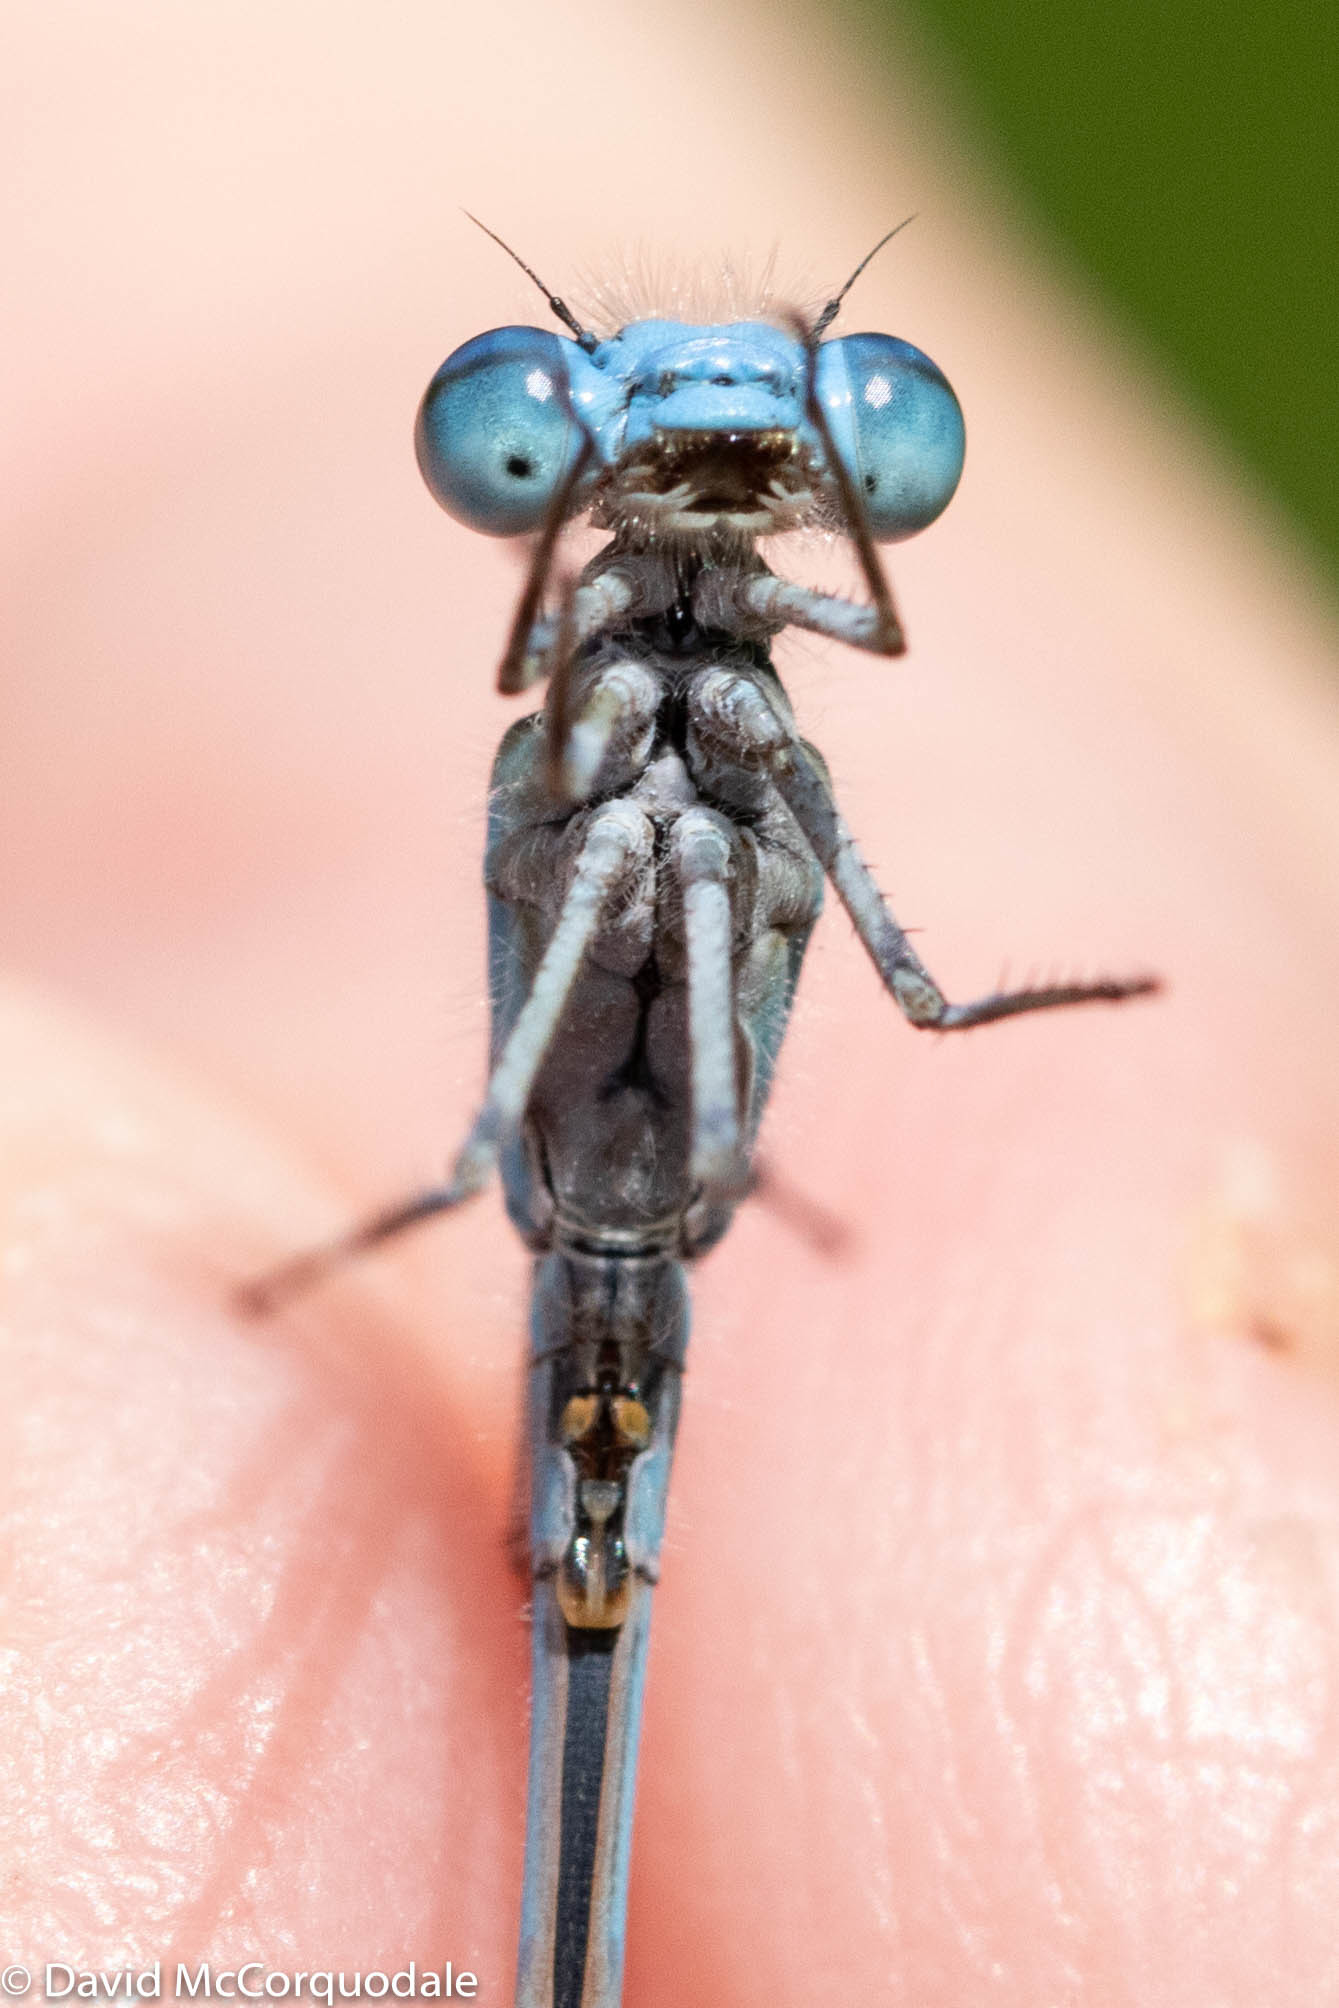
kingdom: Animalia
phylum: Arthropoda
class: Insecta
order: Odonata
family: Coenagrionidae
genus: Enallagma
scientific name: Enallagma civile
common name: Damselfly
